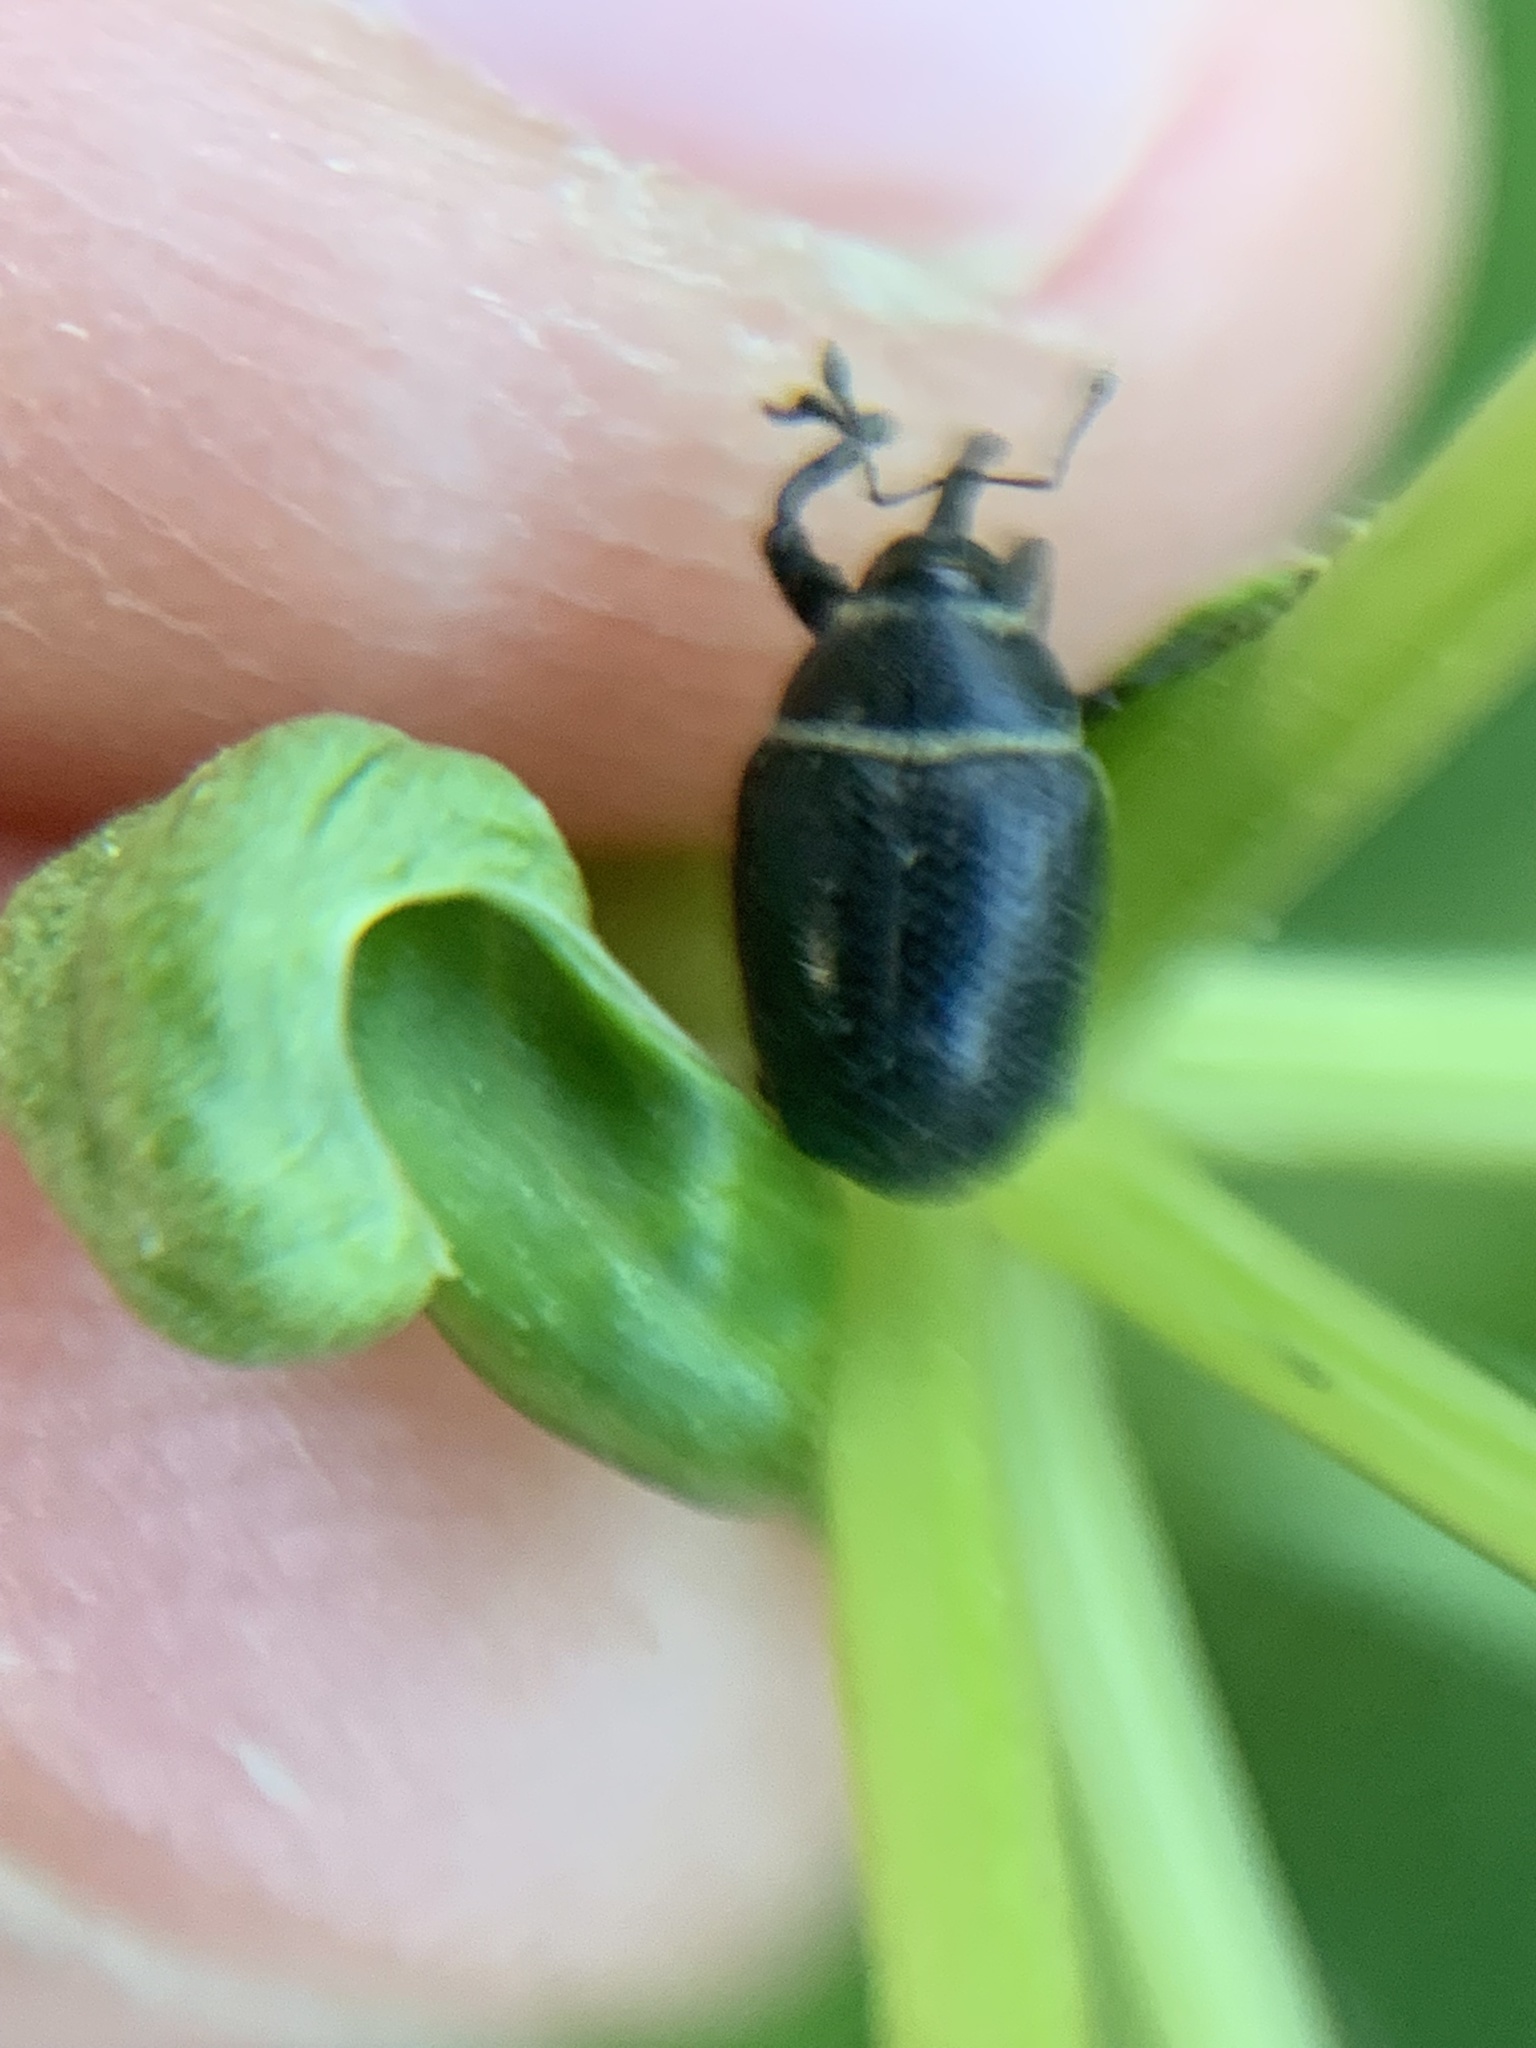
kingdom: Animalia
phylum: Arthropoda
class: Insecta
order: Coleoptera
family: Curculionidae
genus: Rhyssomatus
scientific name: Rhyssomatus marginatus
